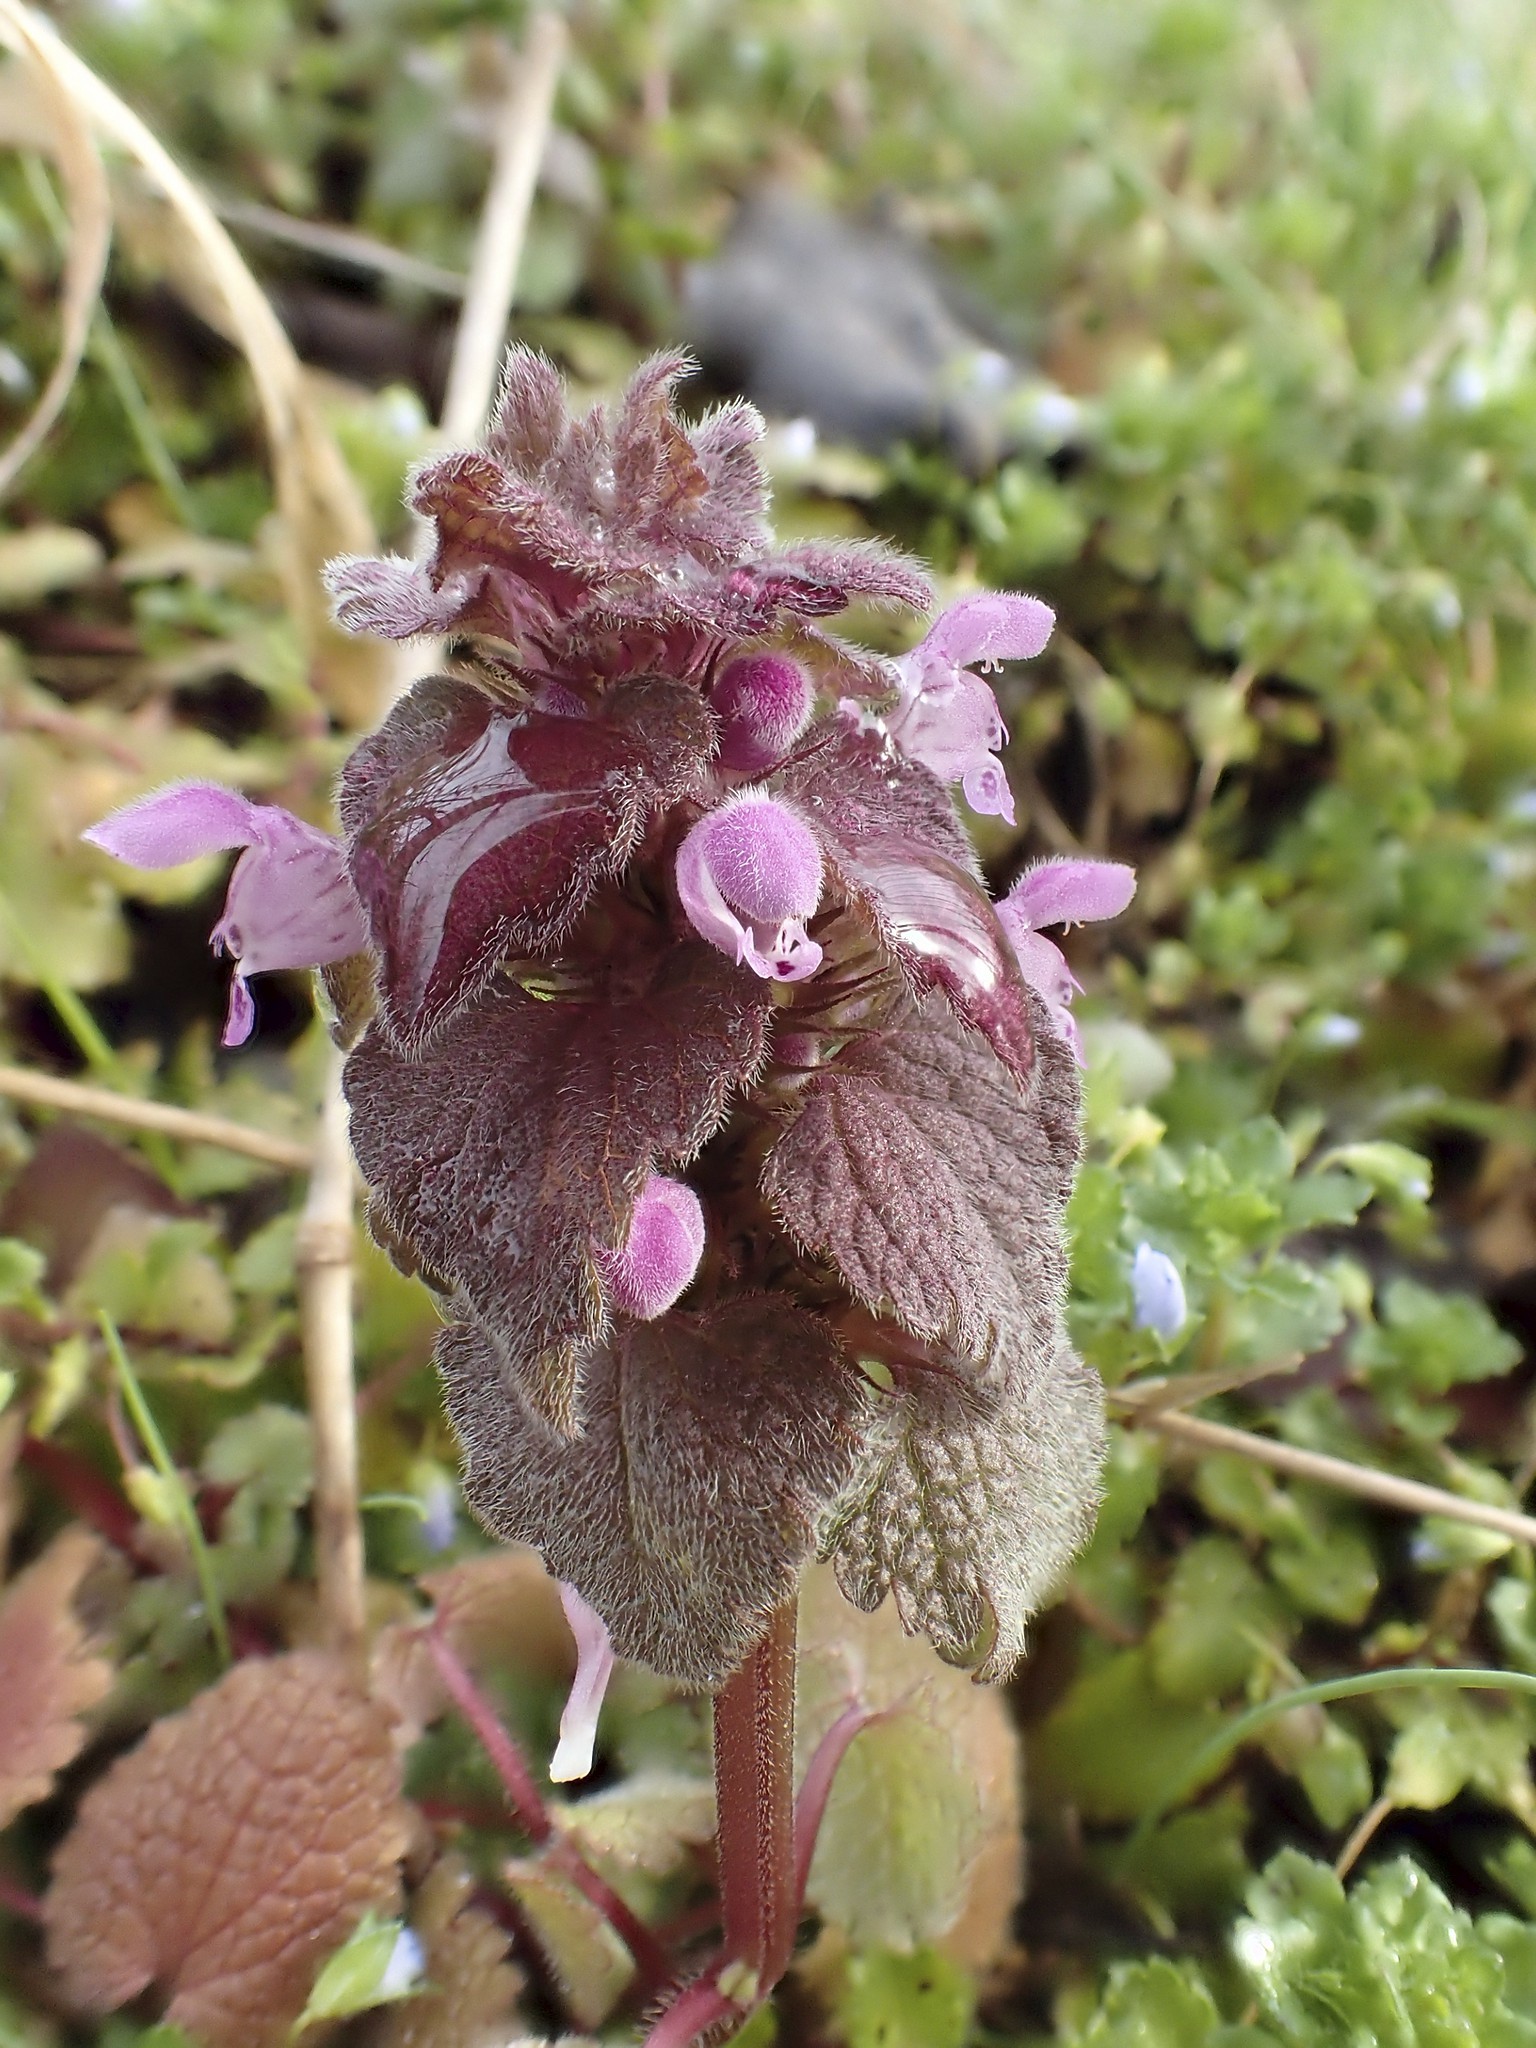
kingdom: Plantae
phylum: Tracheophyta
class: Magnoliopsida
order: Lamiales
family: Lamiaceae
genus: Lamium
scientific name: Lamium purpureum
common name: Red dead-nettle
